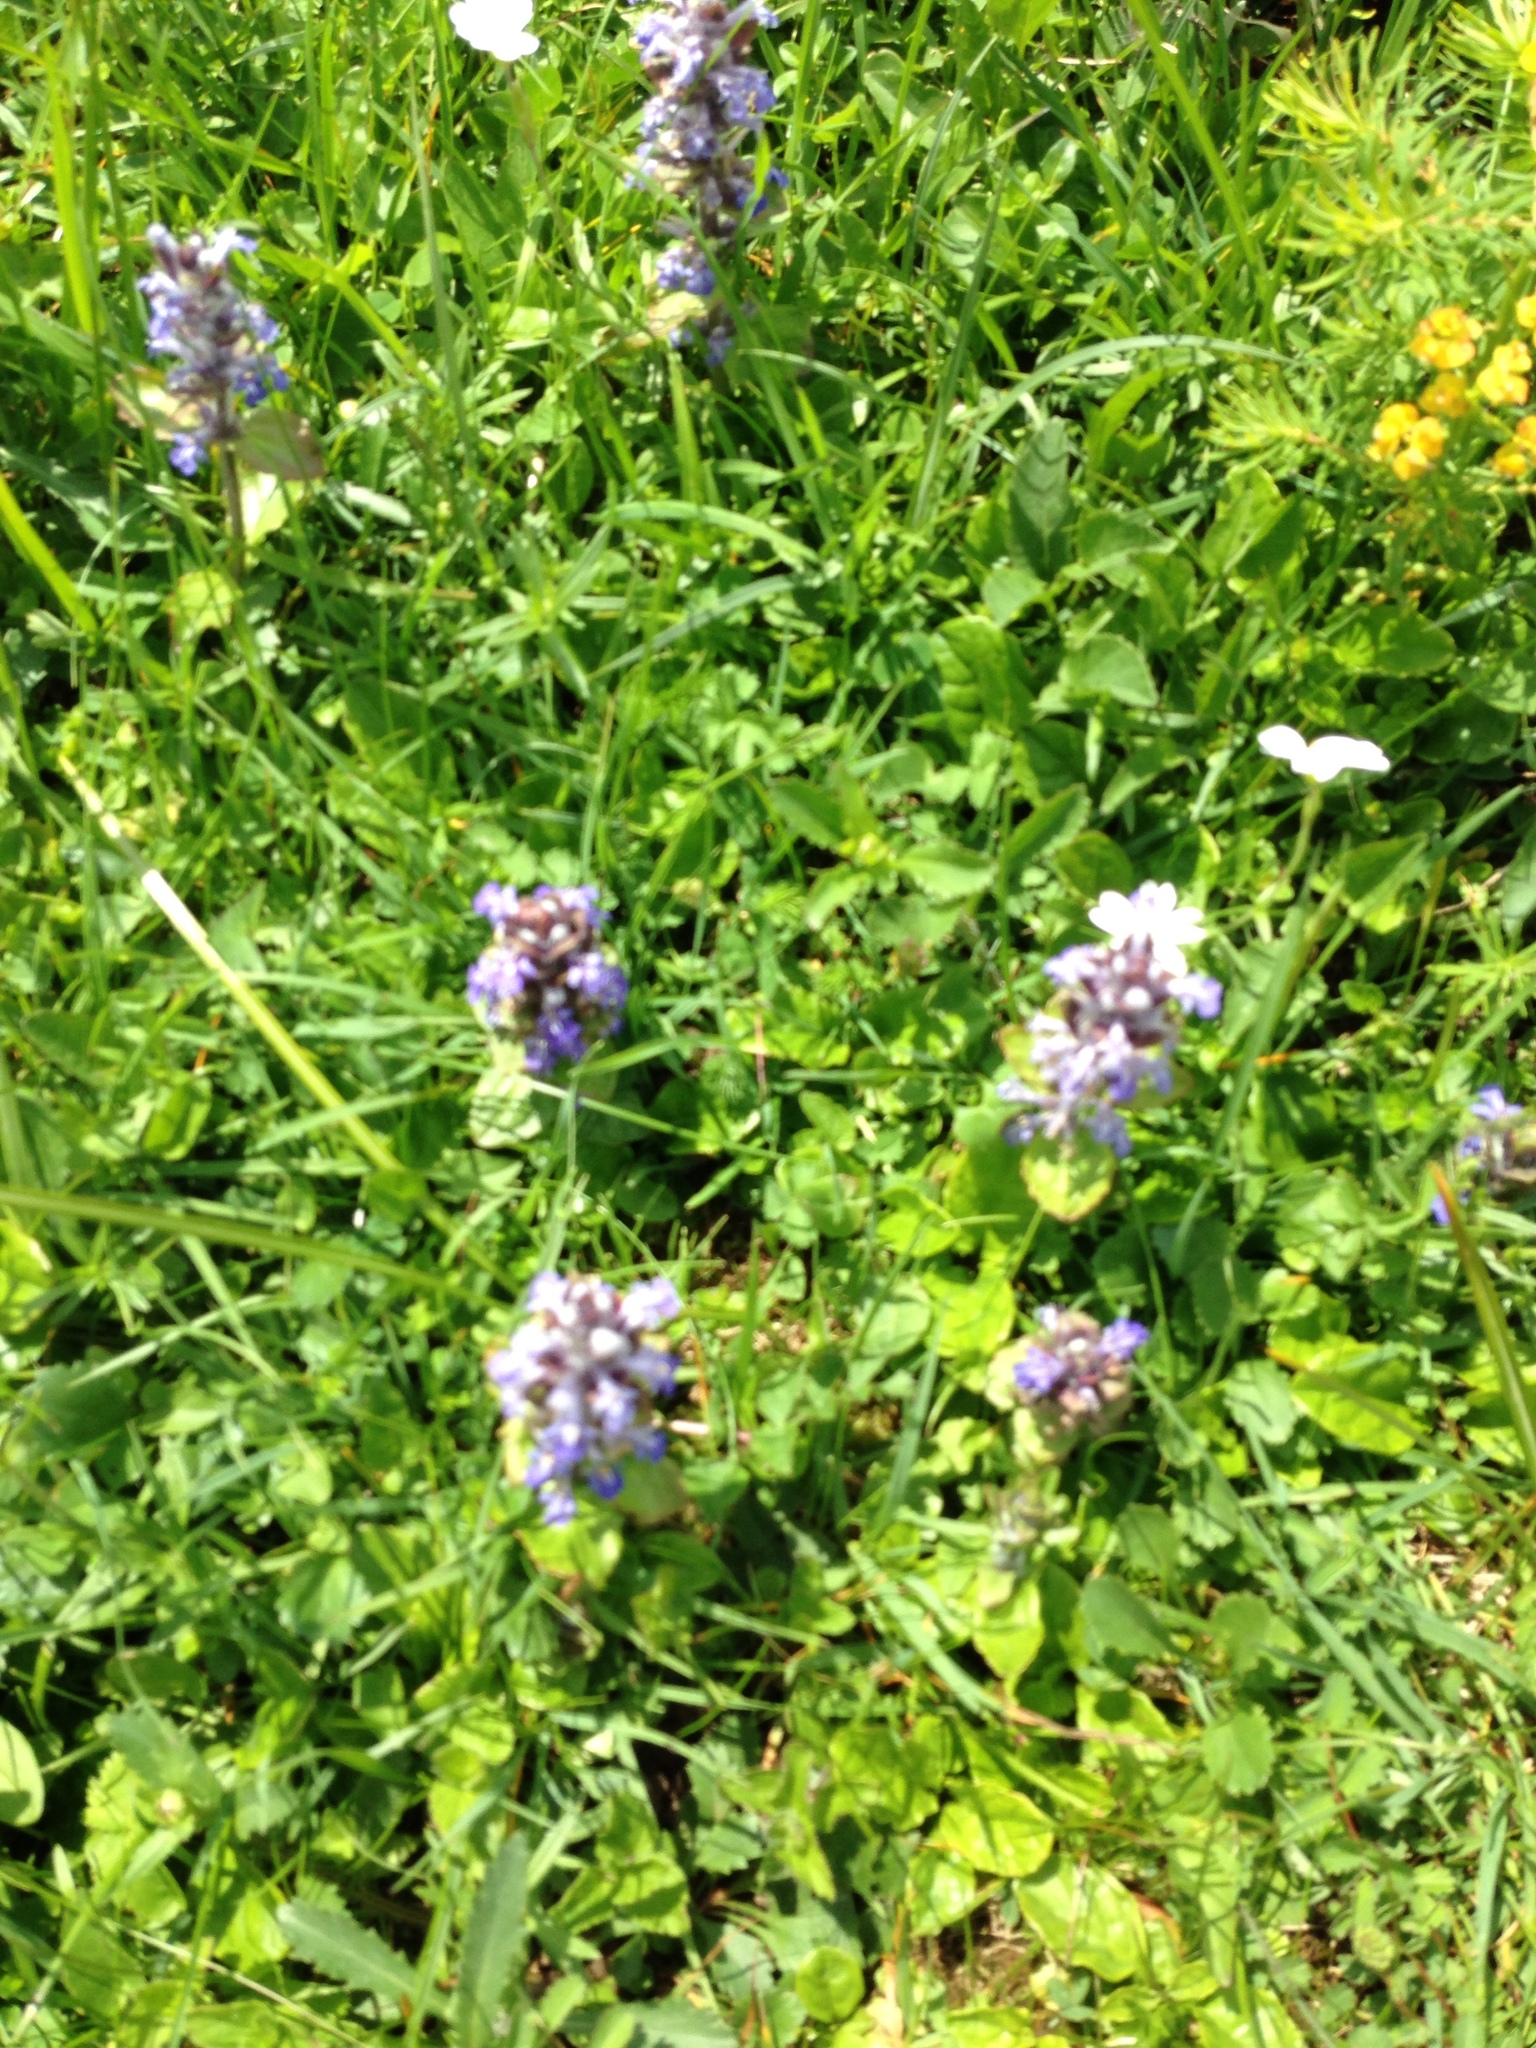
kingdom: Plantae
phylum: Tracheophyta
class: Magnoliopsida
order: Lamiales
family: Lamiaceae
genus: Ajuga
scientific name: Ajuga reptans
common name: Bugle
